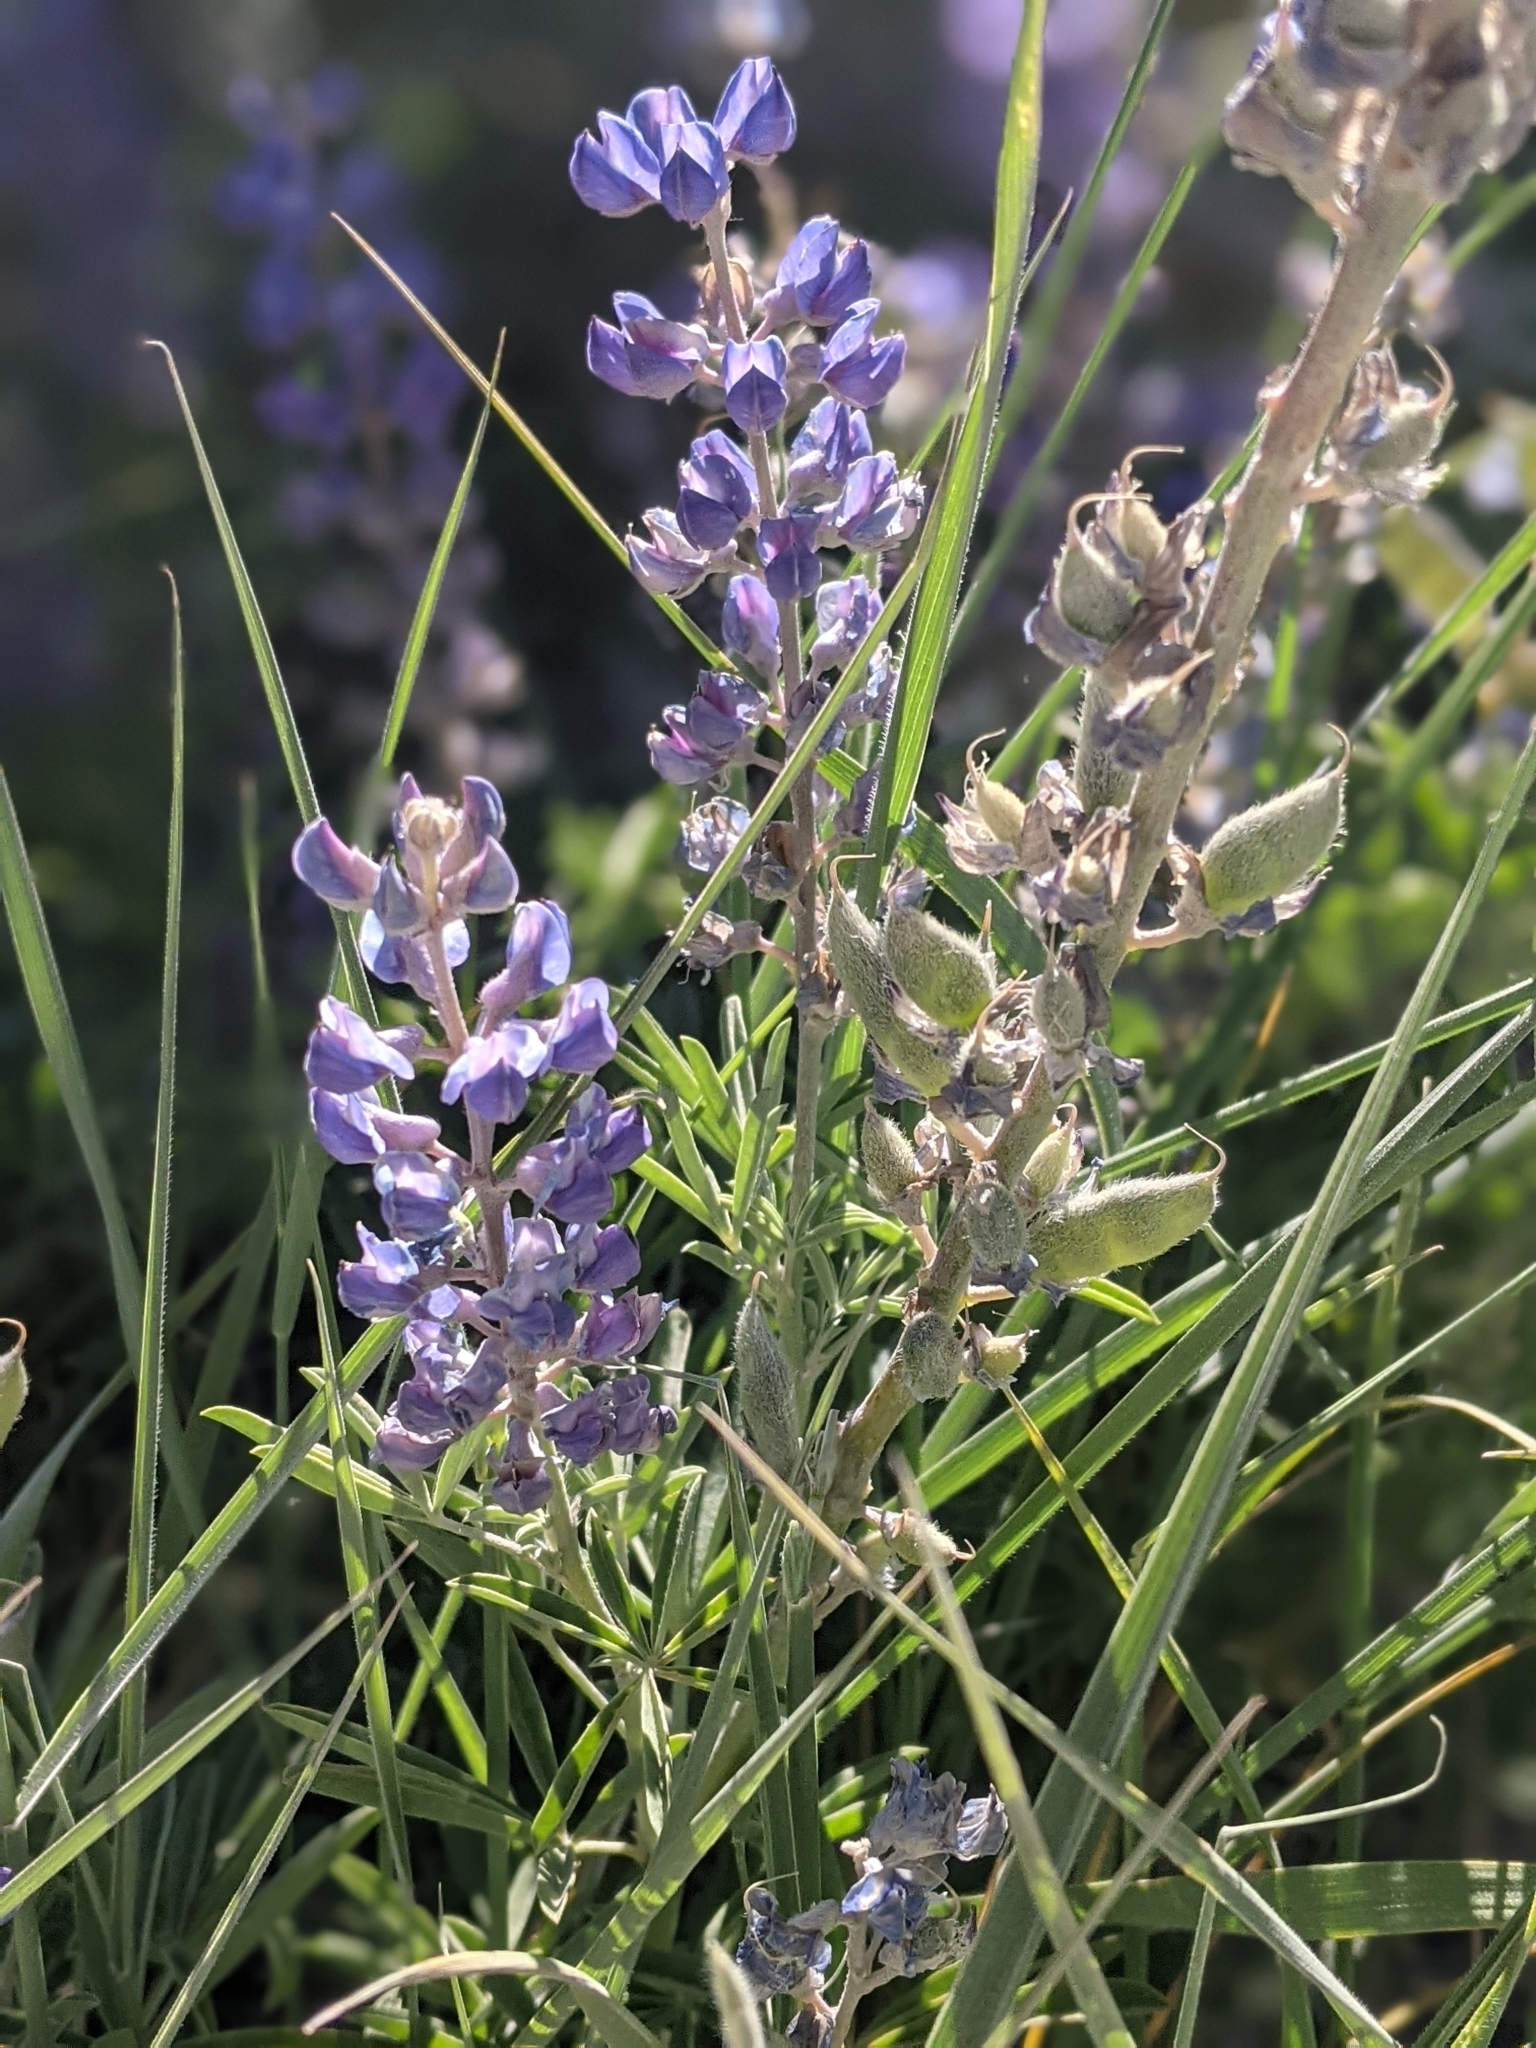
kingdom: Plantae
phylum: Tracheophyta
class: Magnoliopsida
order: Fabales
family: Fabaceae
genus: Lupinus
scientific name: Lupinus argenteus
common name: Silvery lupine
